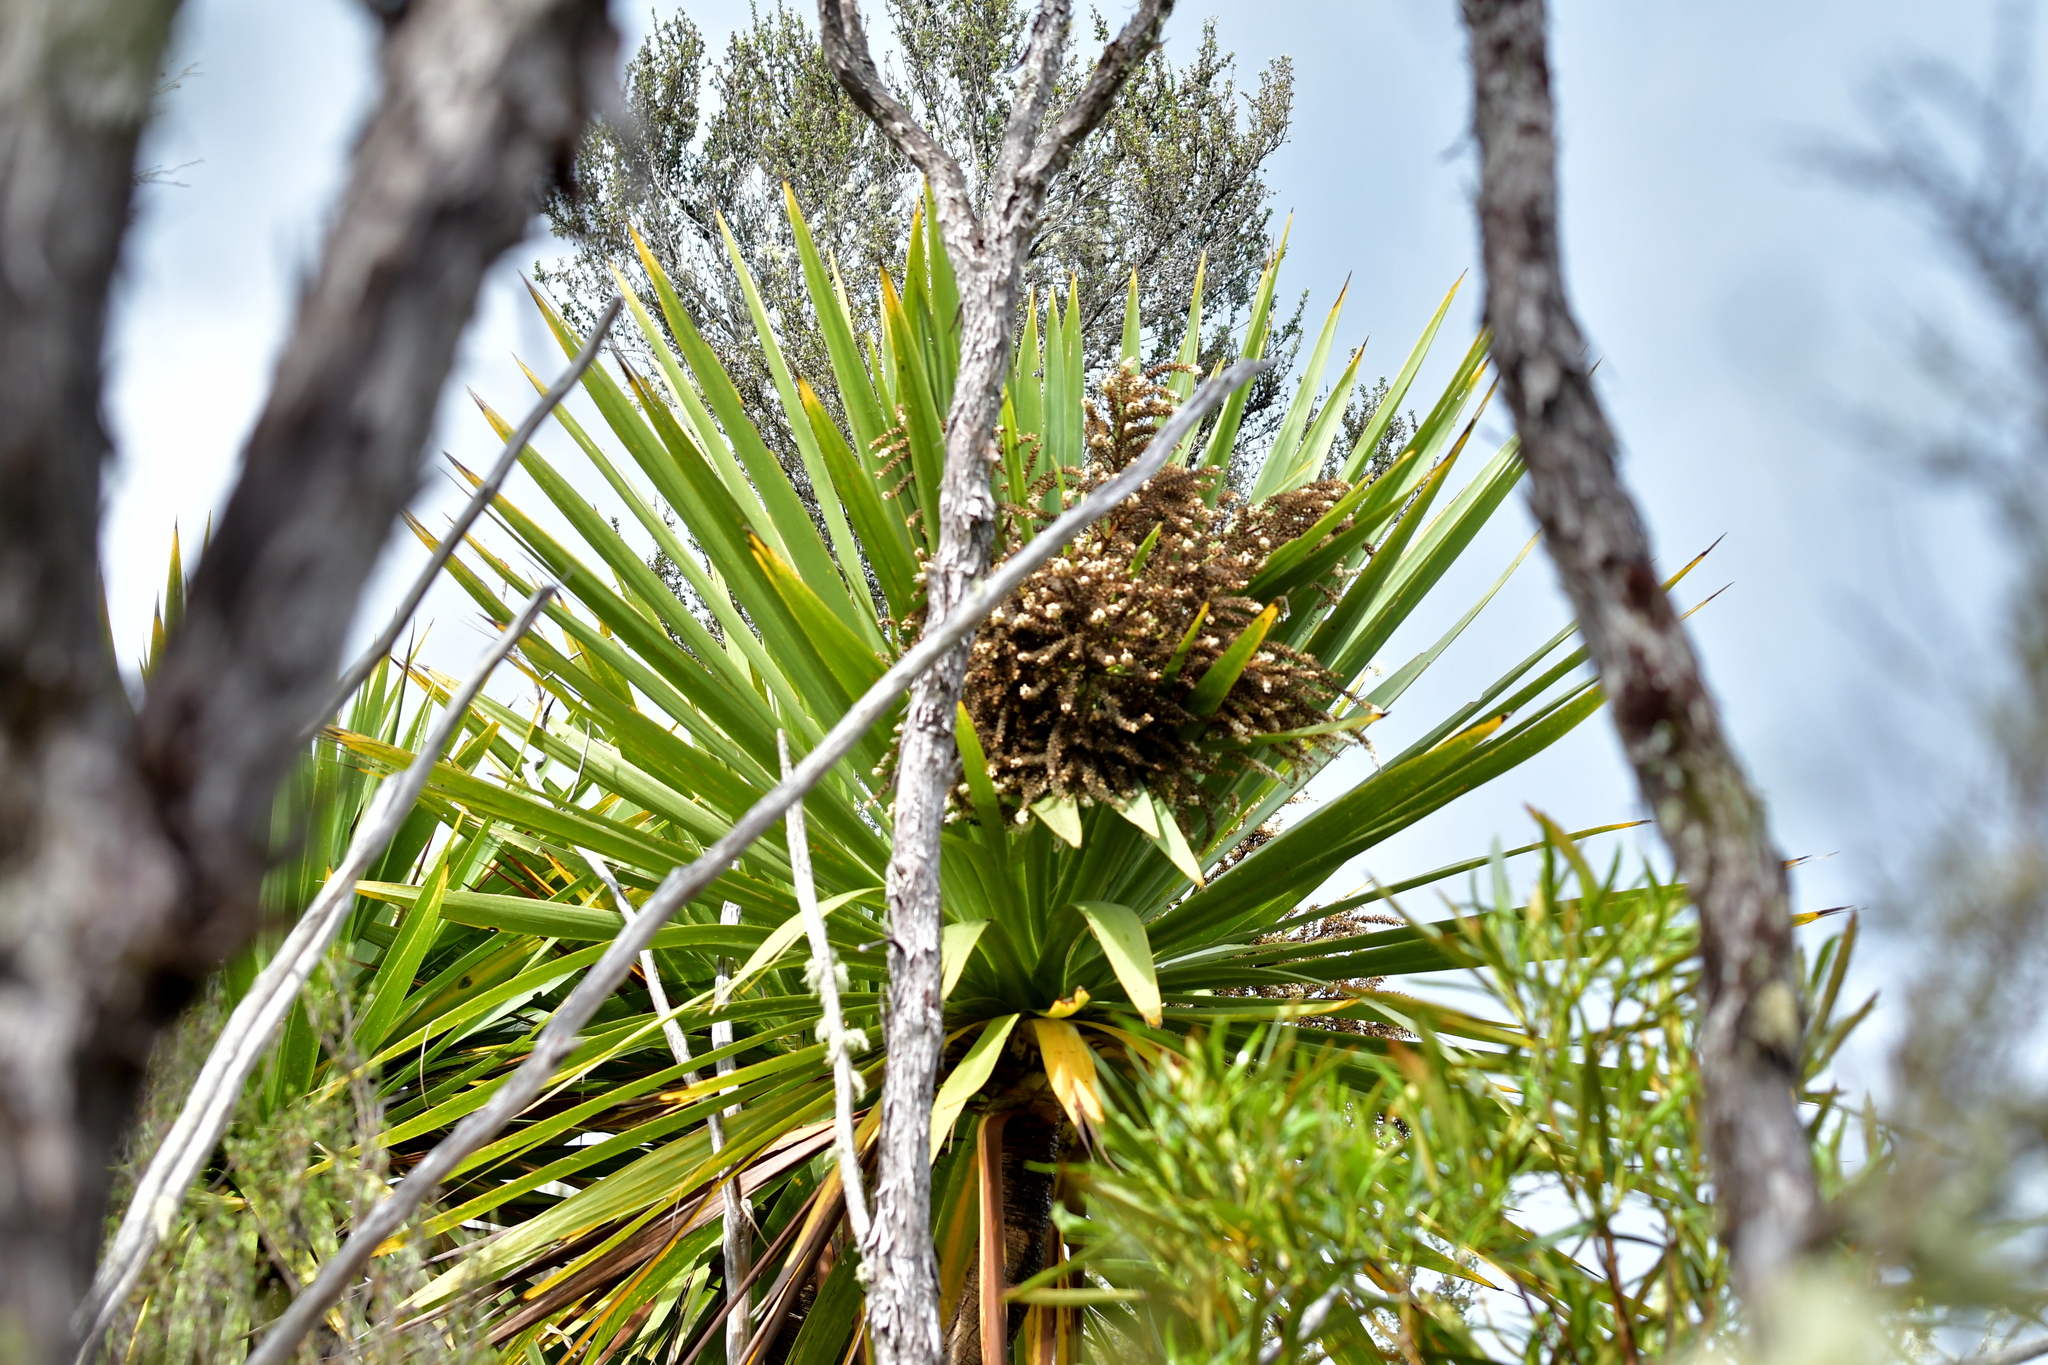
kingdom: Plantae
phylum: Tracheophyta
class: Liliopsida
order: Asparagales
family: Asparagaceae
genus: Cordyline
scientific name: Cordyline australis
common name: Cabbage-palm
